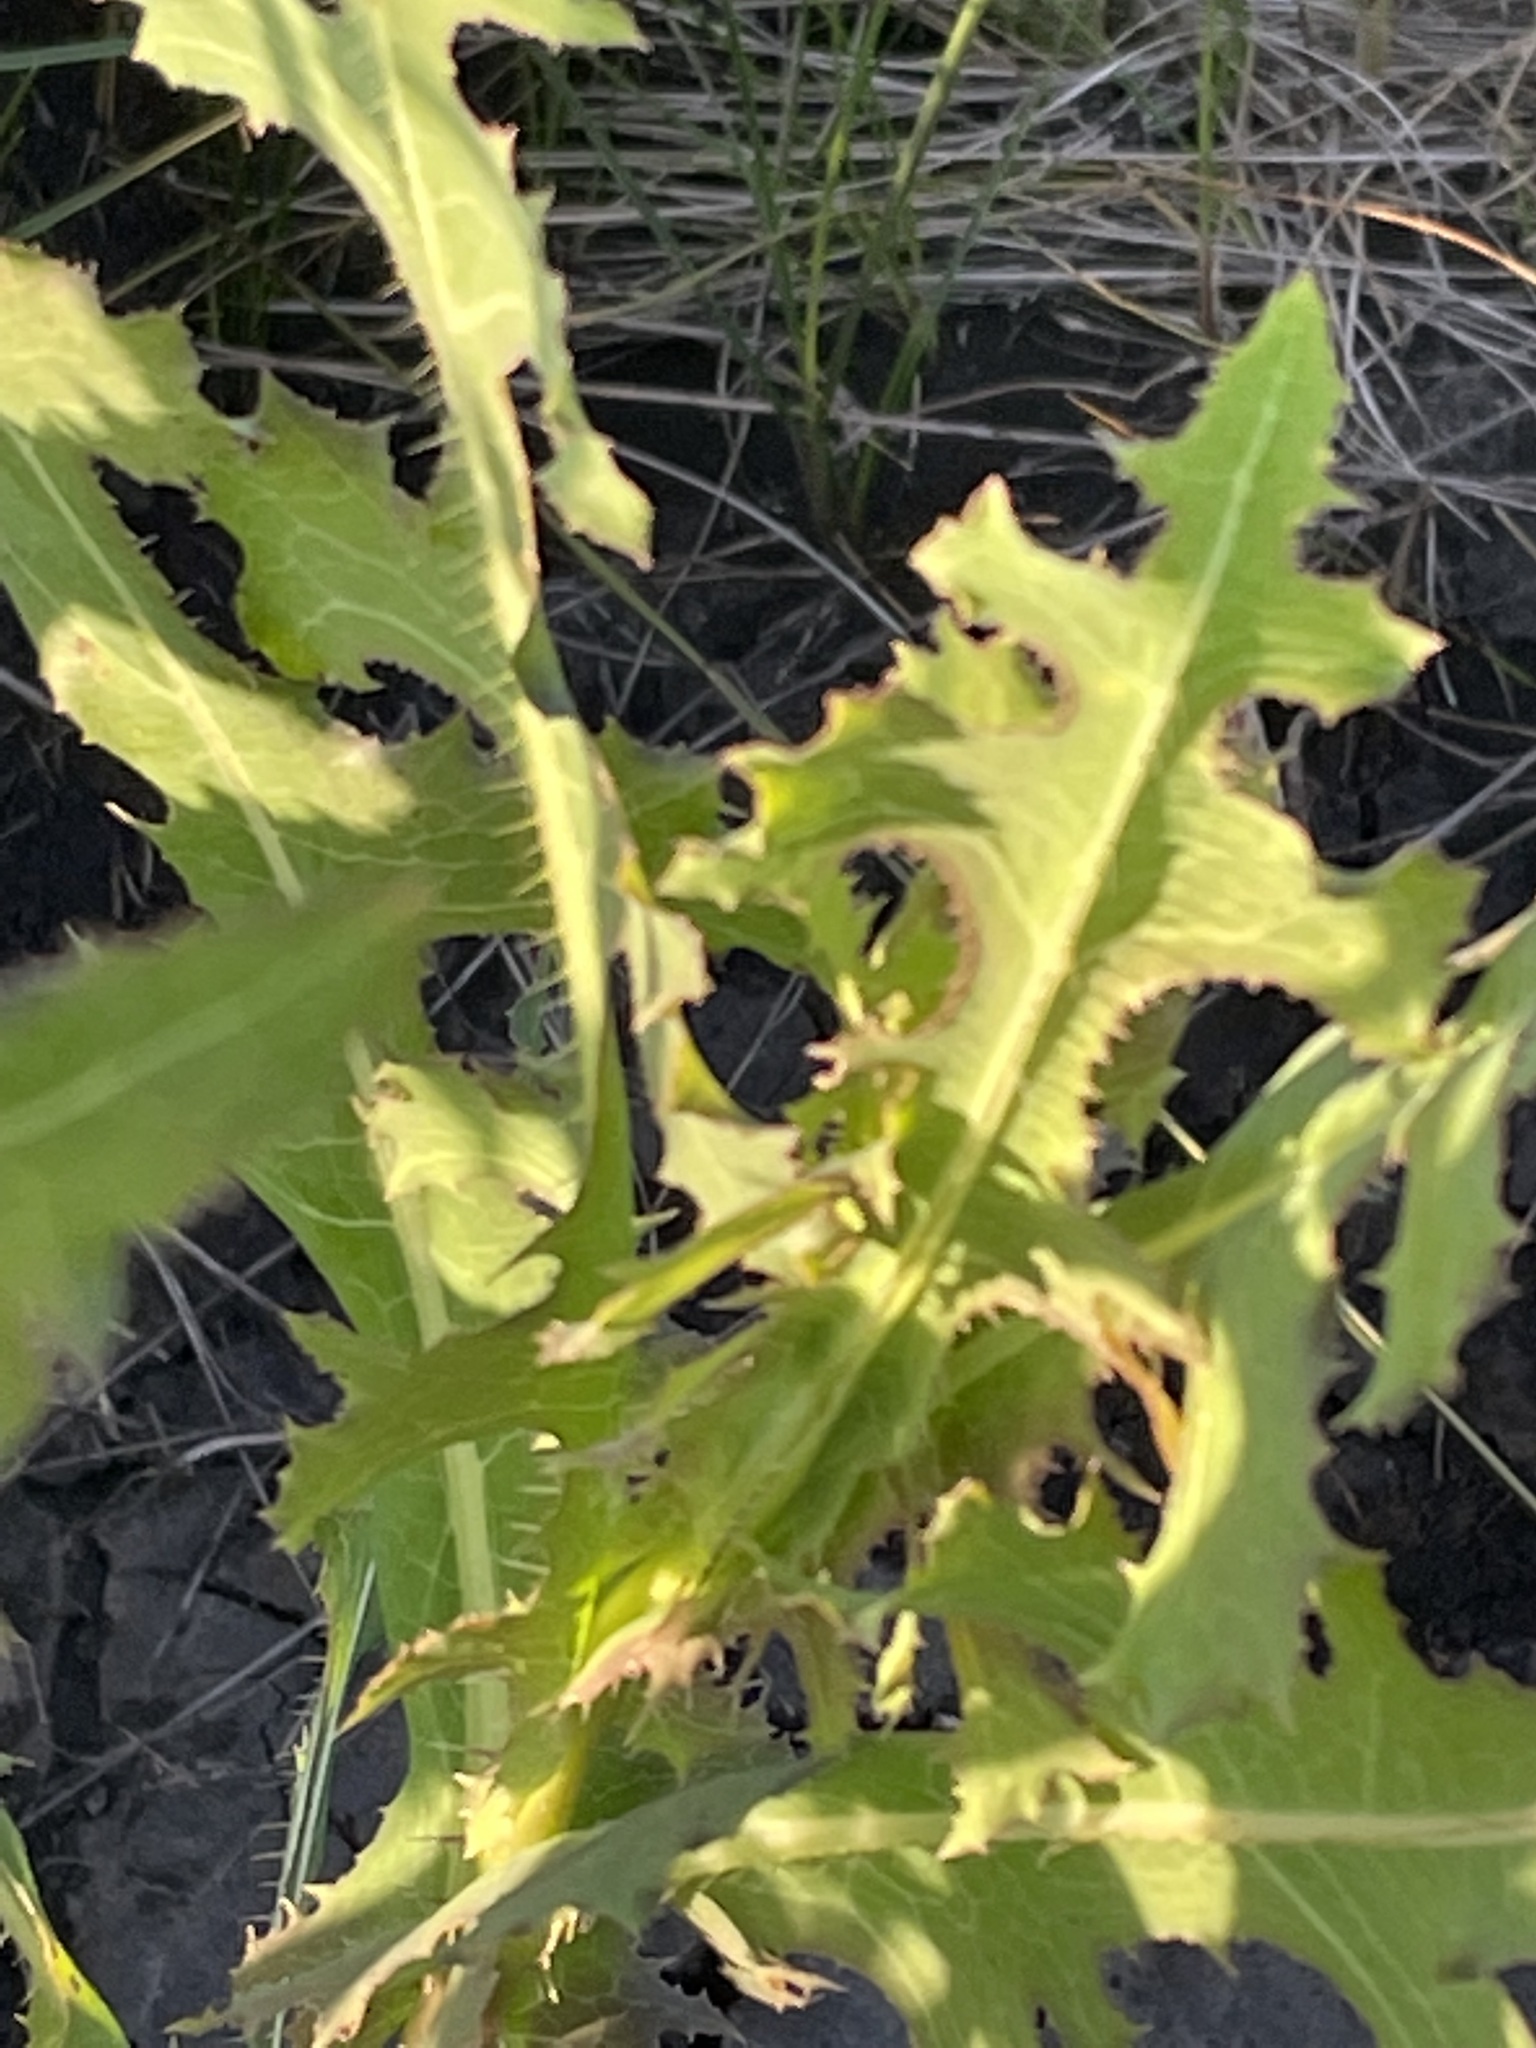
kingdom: Plantae
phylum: Tracheophyta
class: Magnoliopsida
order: Asterales
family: Asteraceae
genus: Lactuca
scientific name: Lactuca serriola
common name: Prickly lettuce
